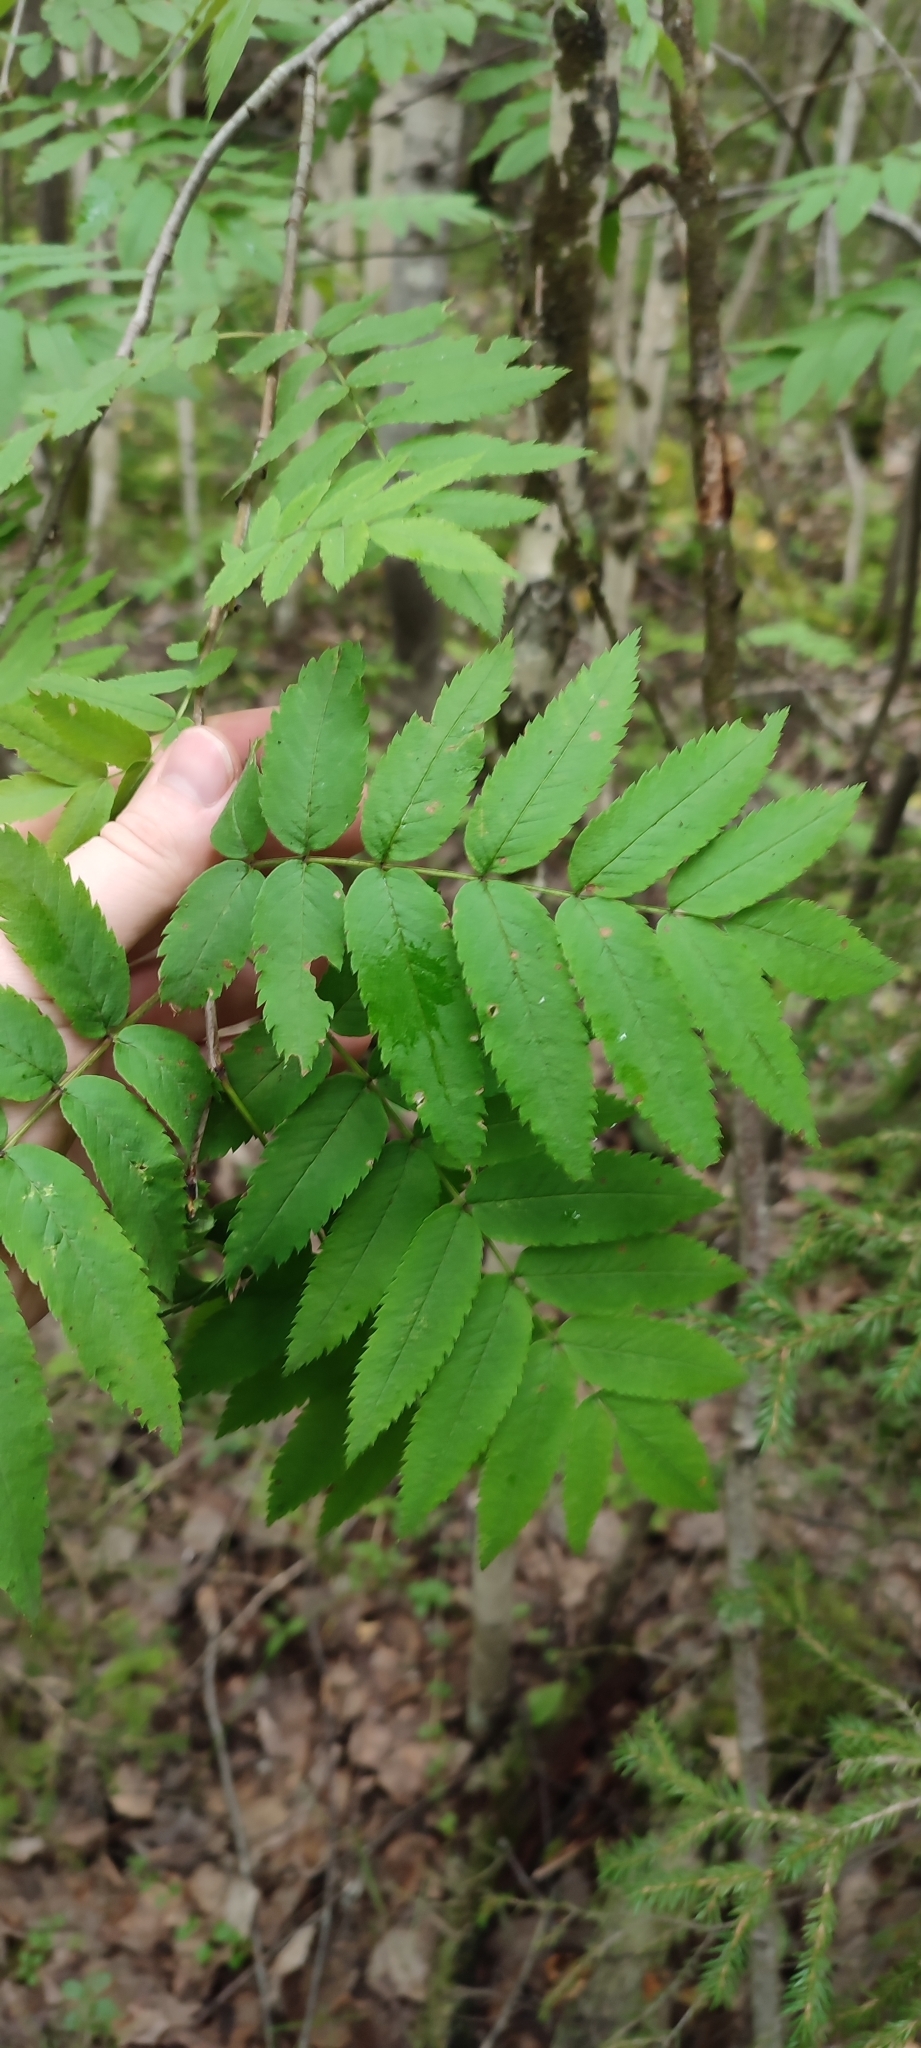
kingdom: Plantae
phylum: Tracheophyta
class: Magnoliopsida
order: Rosales
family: Rosaceae
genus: Sorbus
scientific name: Sorbus aucuparia
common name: Rowan
